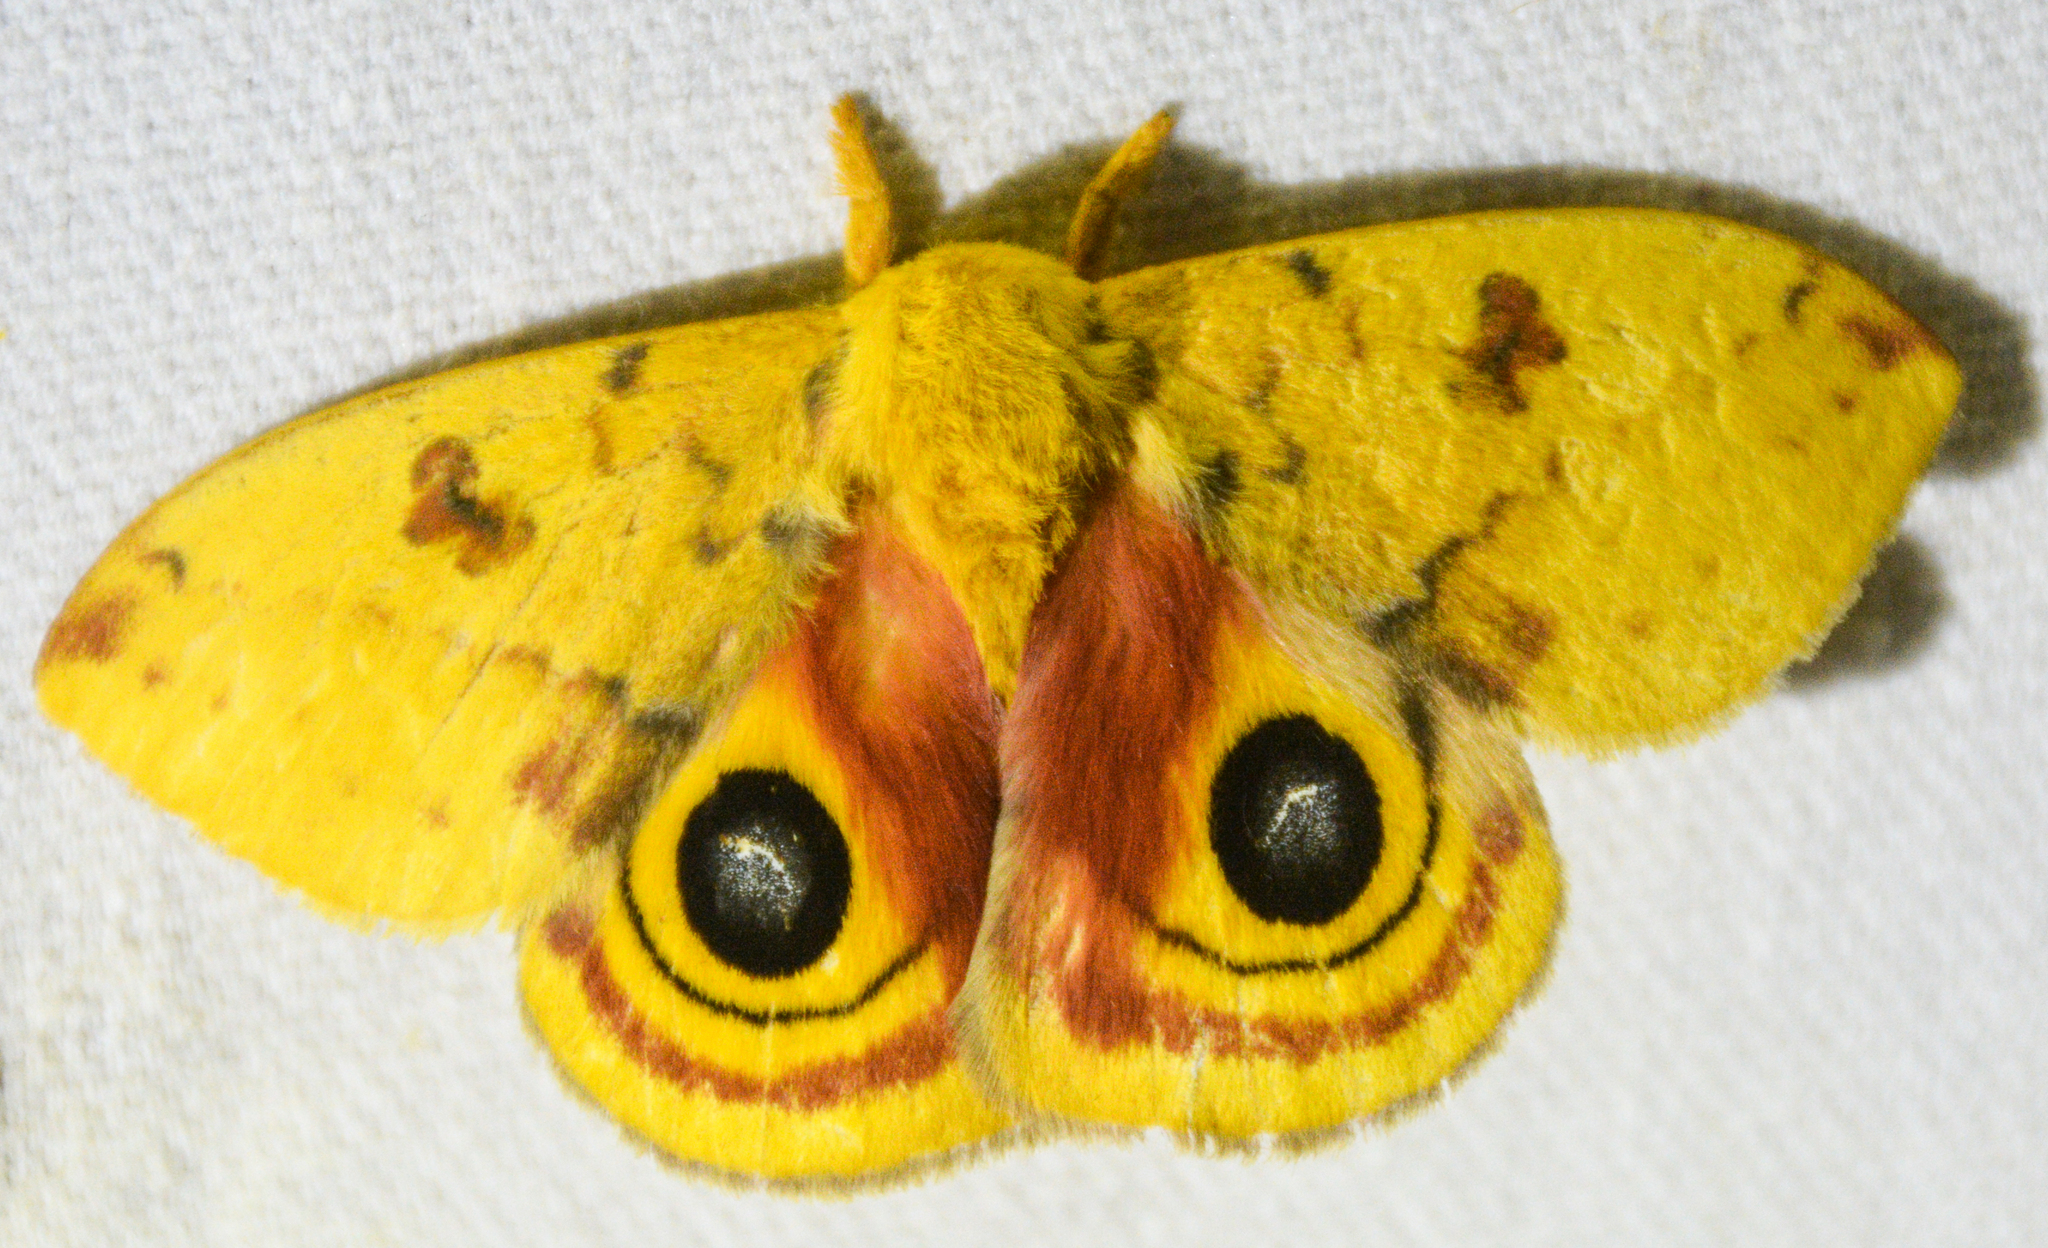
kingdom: Animalia
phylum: Arthropoda
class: Insecta
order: Lepidoptera
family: Saturniidae
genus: Automeris
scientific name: Automeris io
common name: Io moth
